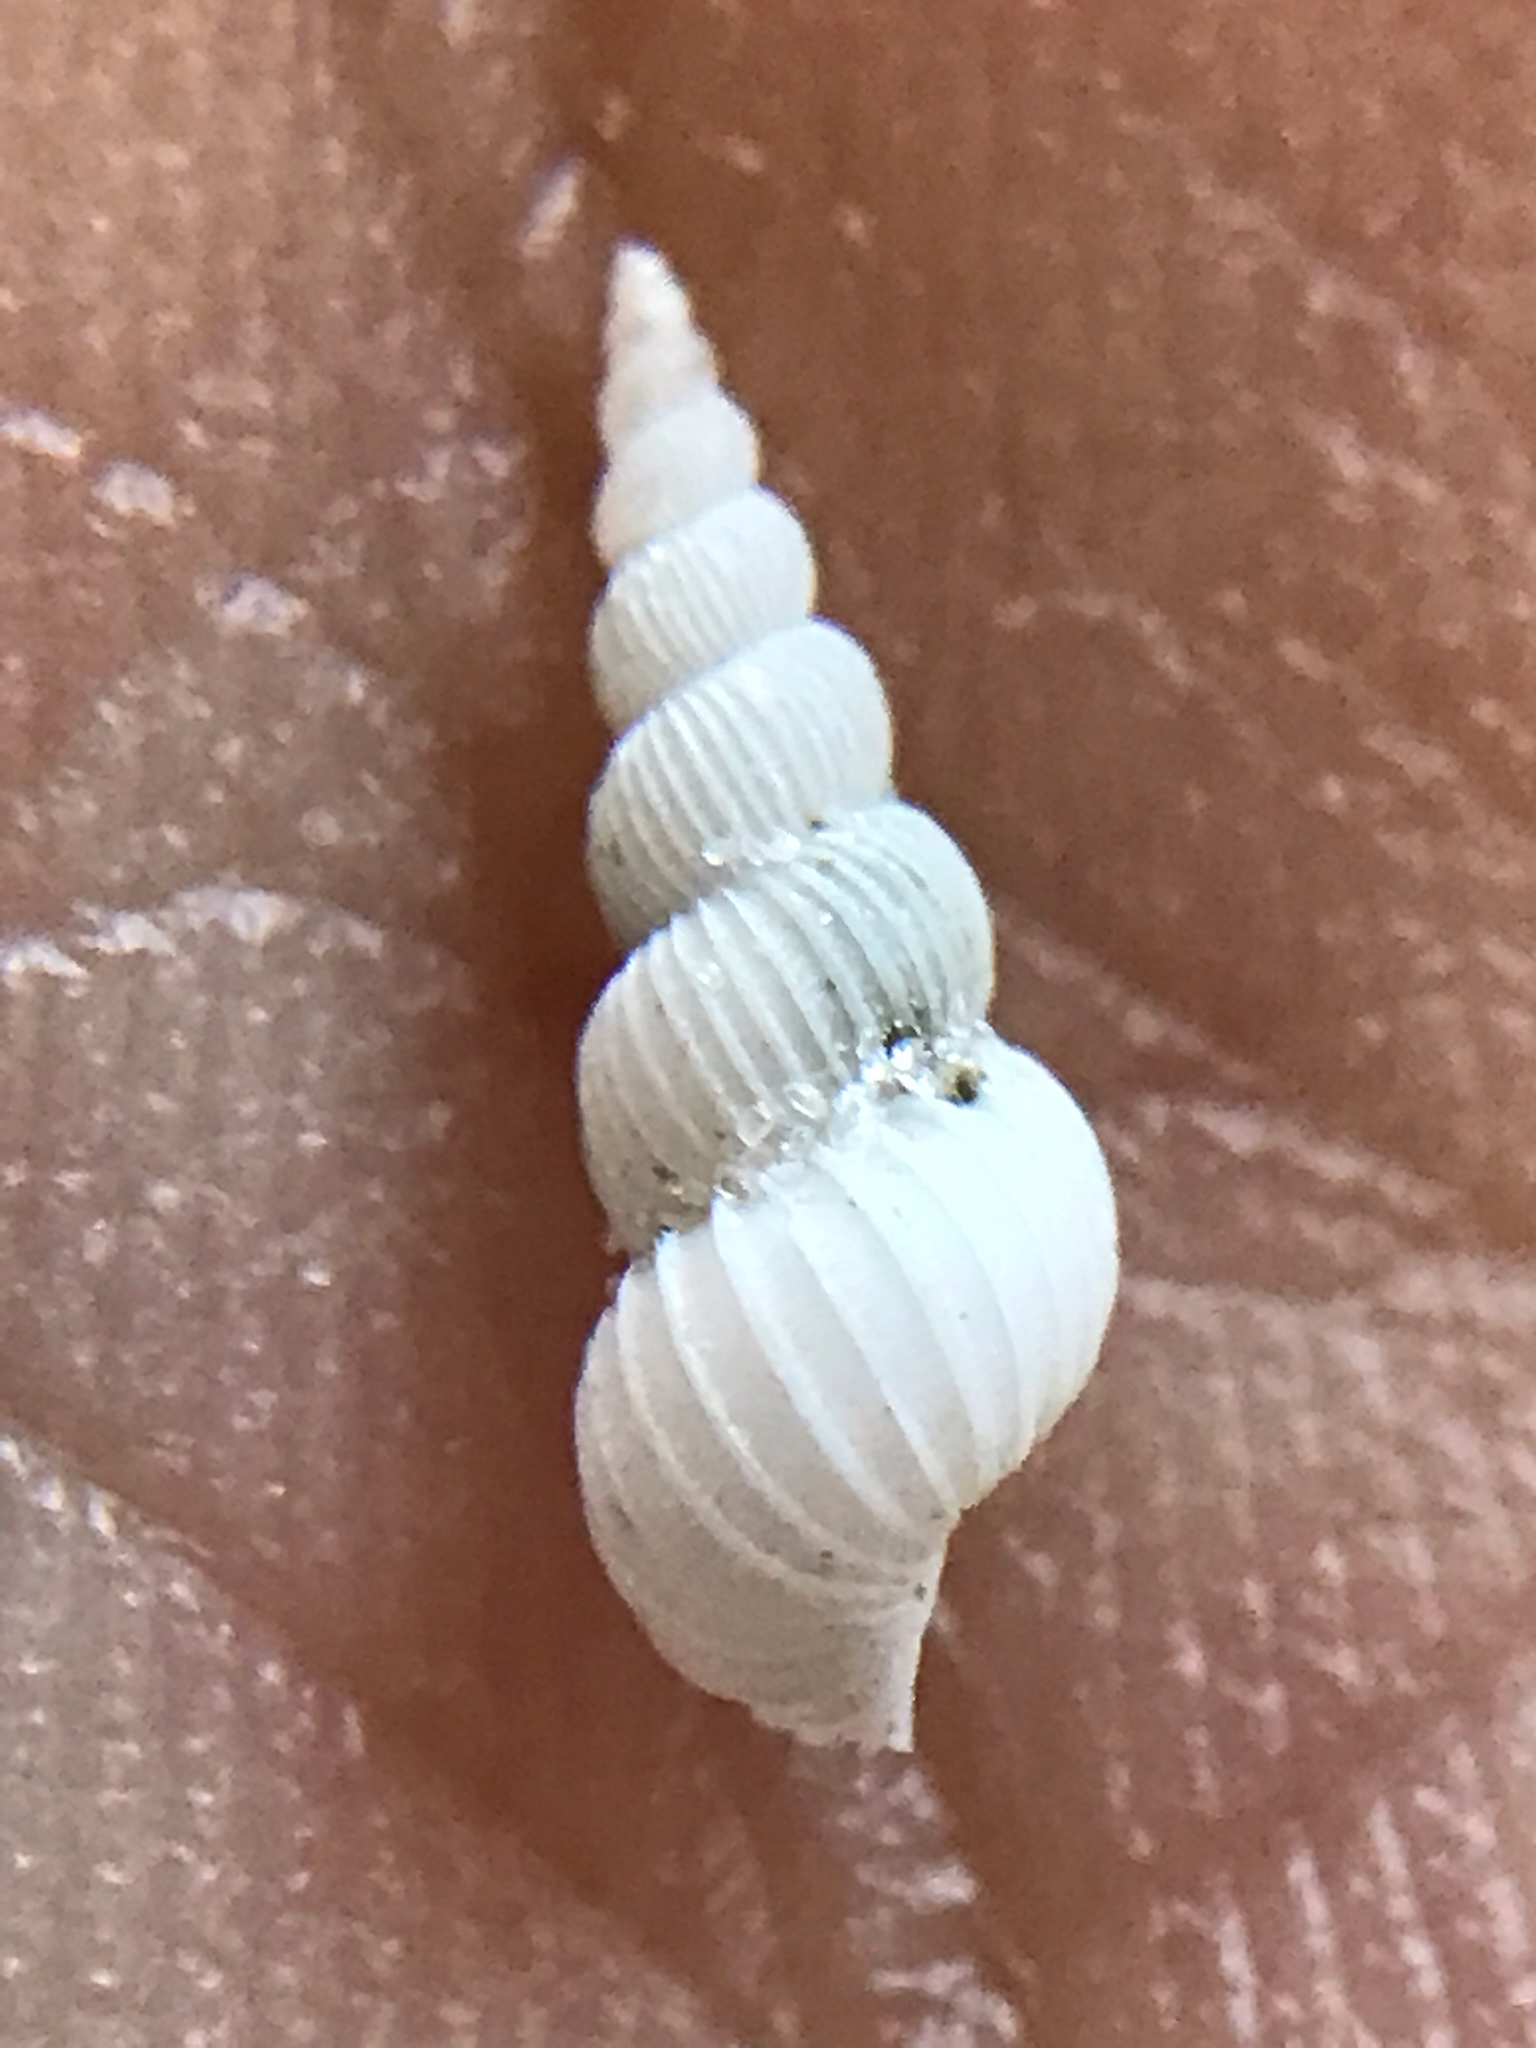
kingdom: Animalia
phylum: Mollusca
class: Gastropoda
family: Epitoniidae
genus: Epitonium
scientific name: Epitonium matthewsae
